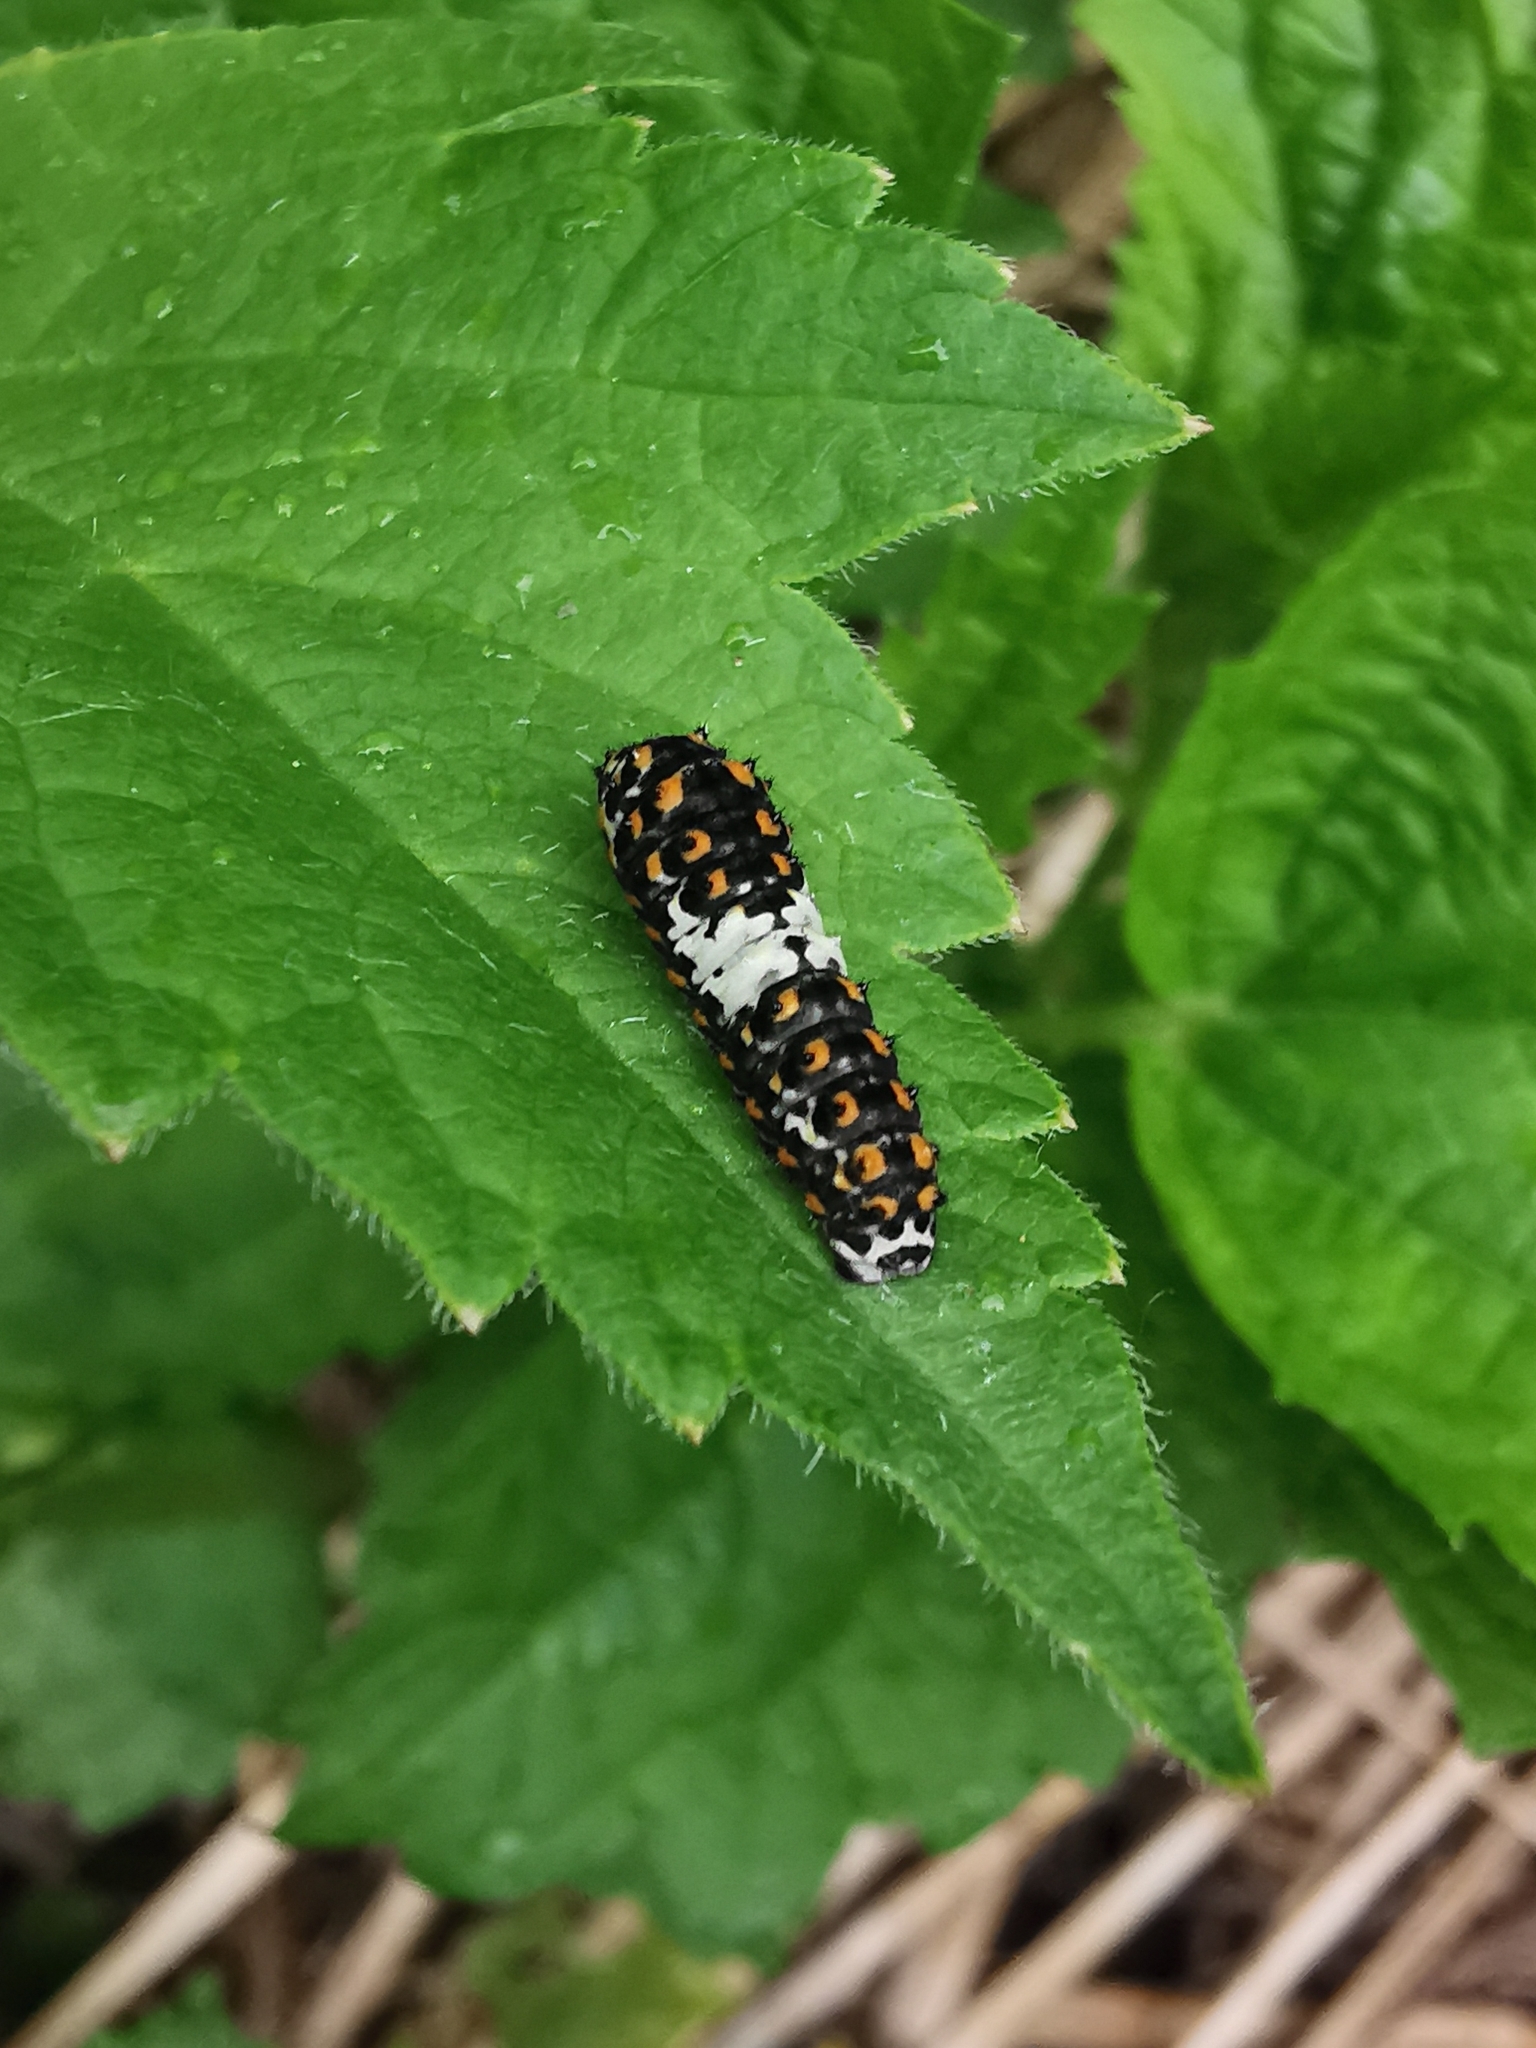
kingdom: Animalia
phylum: Arthropoda
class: Insecta
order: Lepidoptera
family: Papilionidae
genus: Papilio
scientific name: Papilio machaon
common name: Swallowtail
